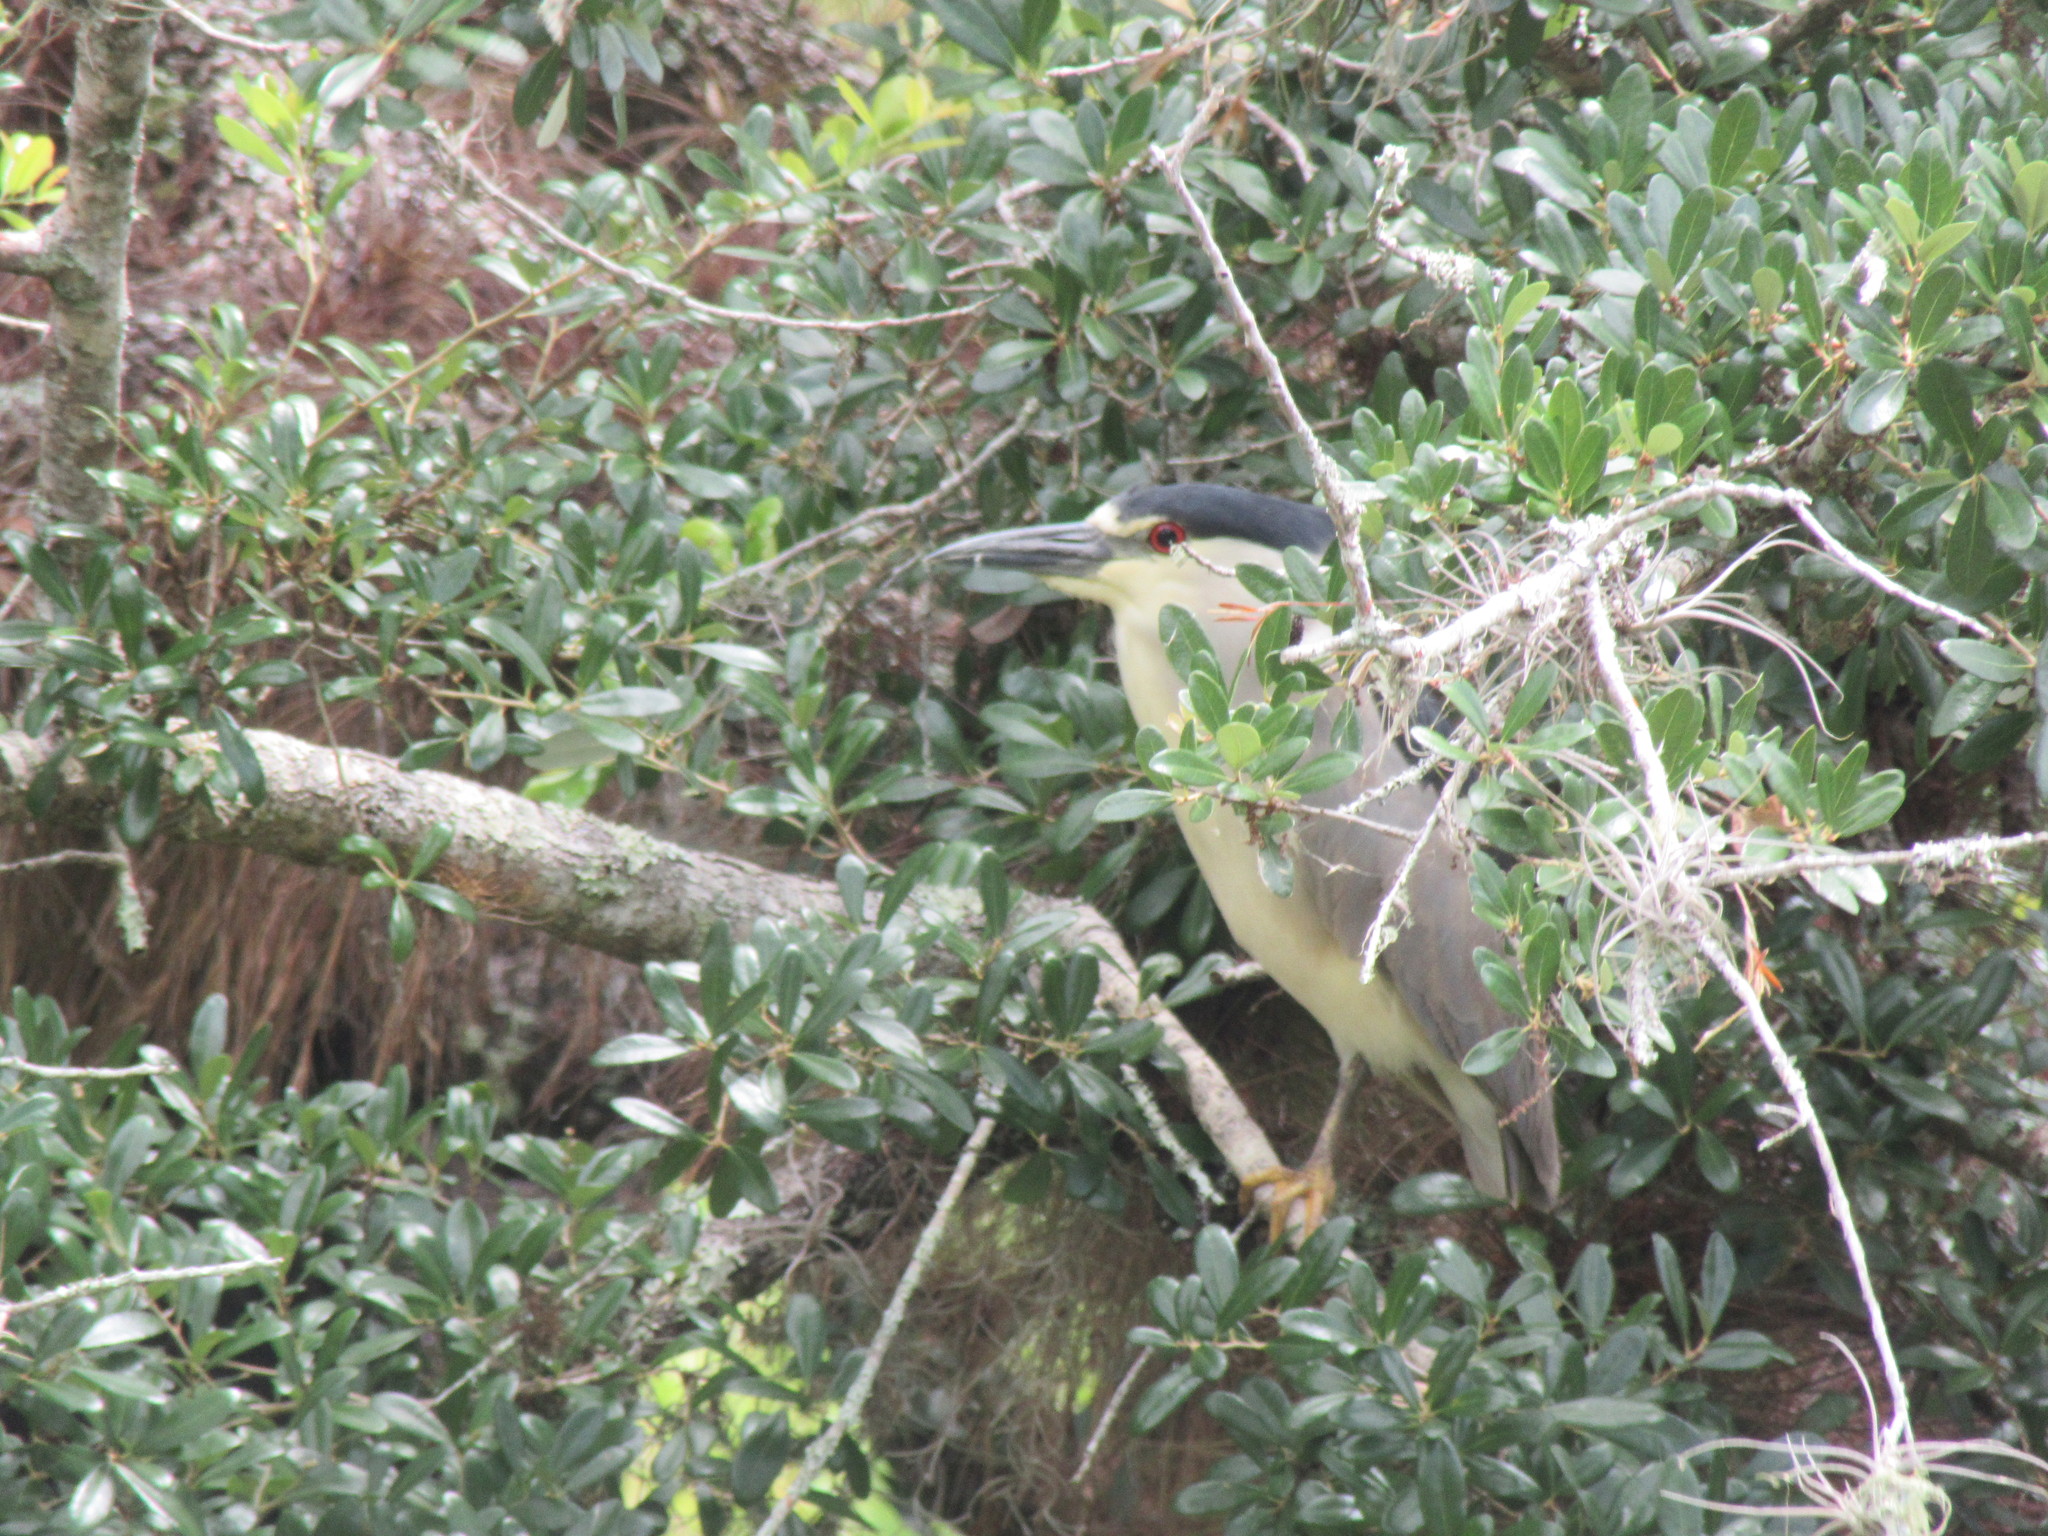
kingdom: Animalia
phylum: Chordata
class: Aves
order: Pelecaniformes
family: Ardeidae
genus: Nycticorax
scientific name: Nycticorax nycticorax
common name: Black-crowned night heron
